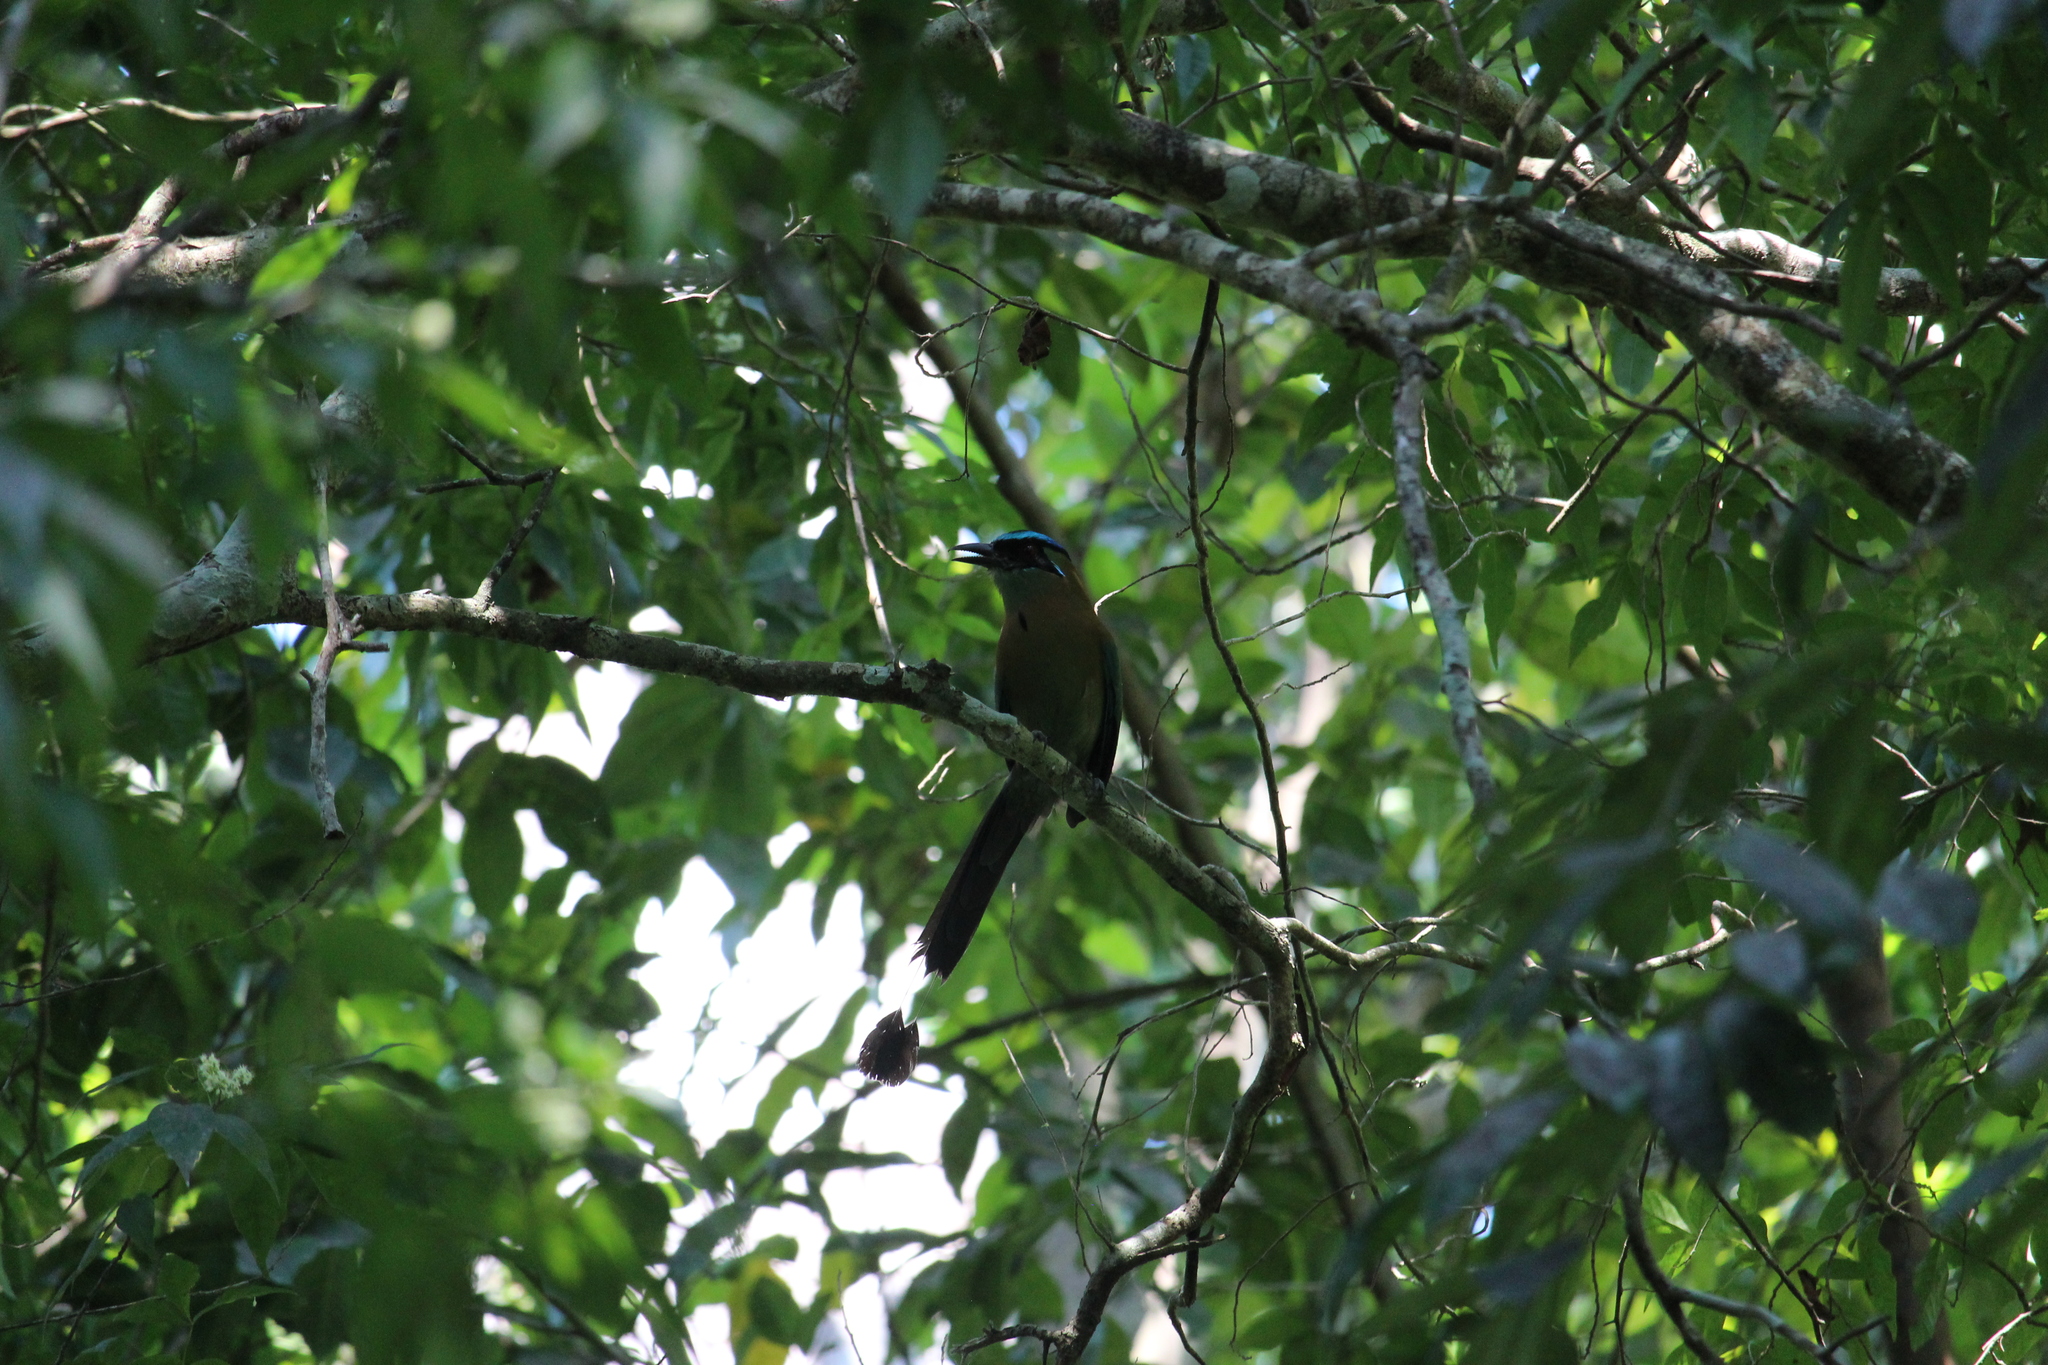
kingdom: Animalia
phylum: Chordata
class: Aves
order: Coraciiformes
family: Momotidae
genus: Momotus
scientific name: Momotus lessonii
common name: Lesson's motmot
